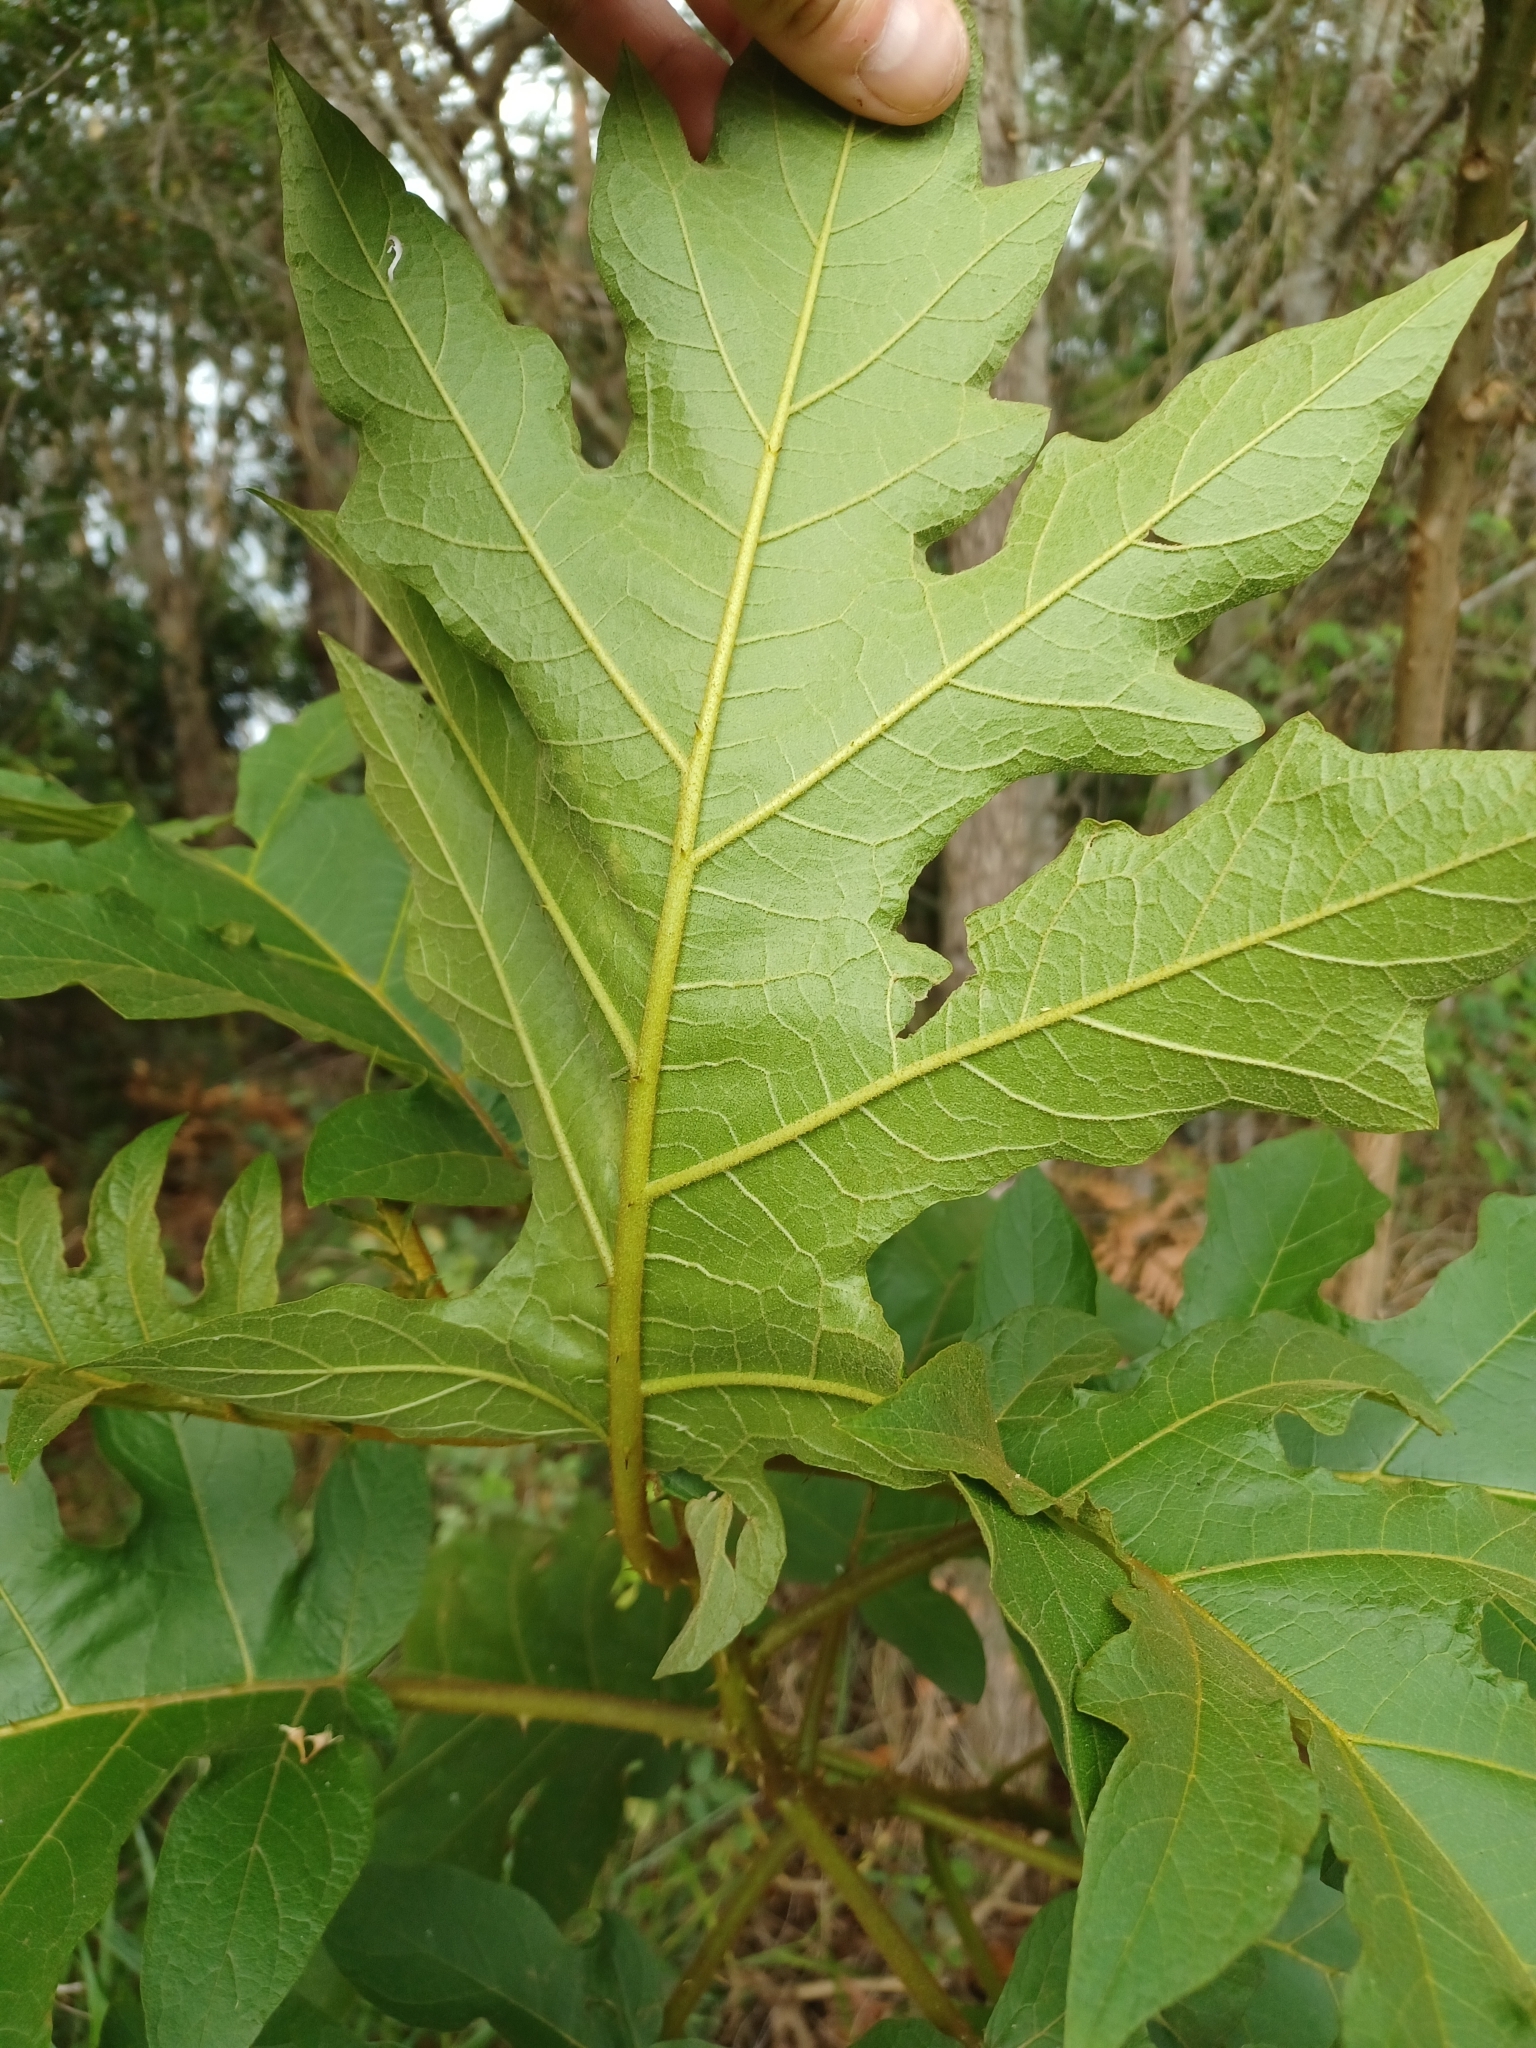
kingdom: Plantae
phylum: Tracheophyta
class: Magnoliopsida
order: Solanales
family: Solanaceae
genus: Solanum
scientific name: Solanum chrysotrichum
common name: Nightshade
